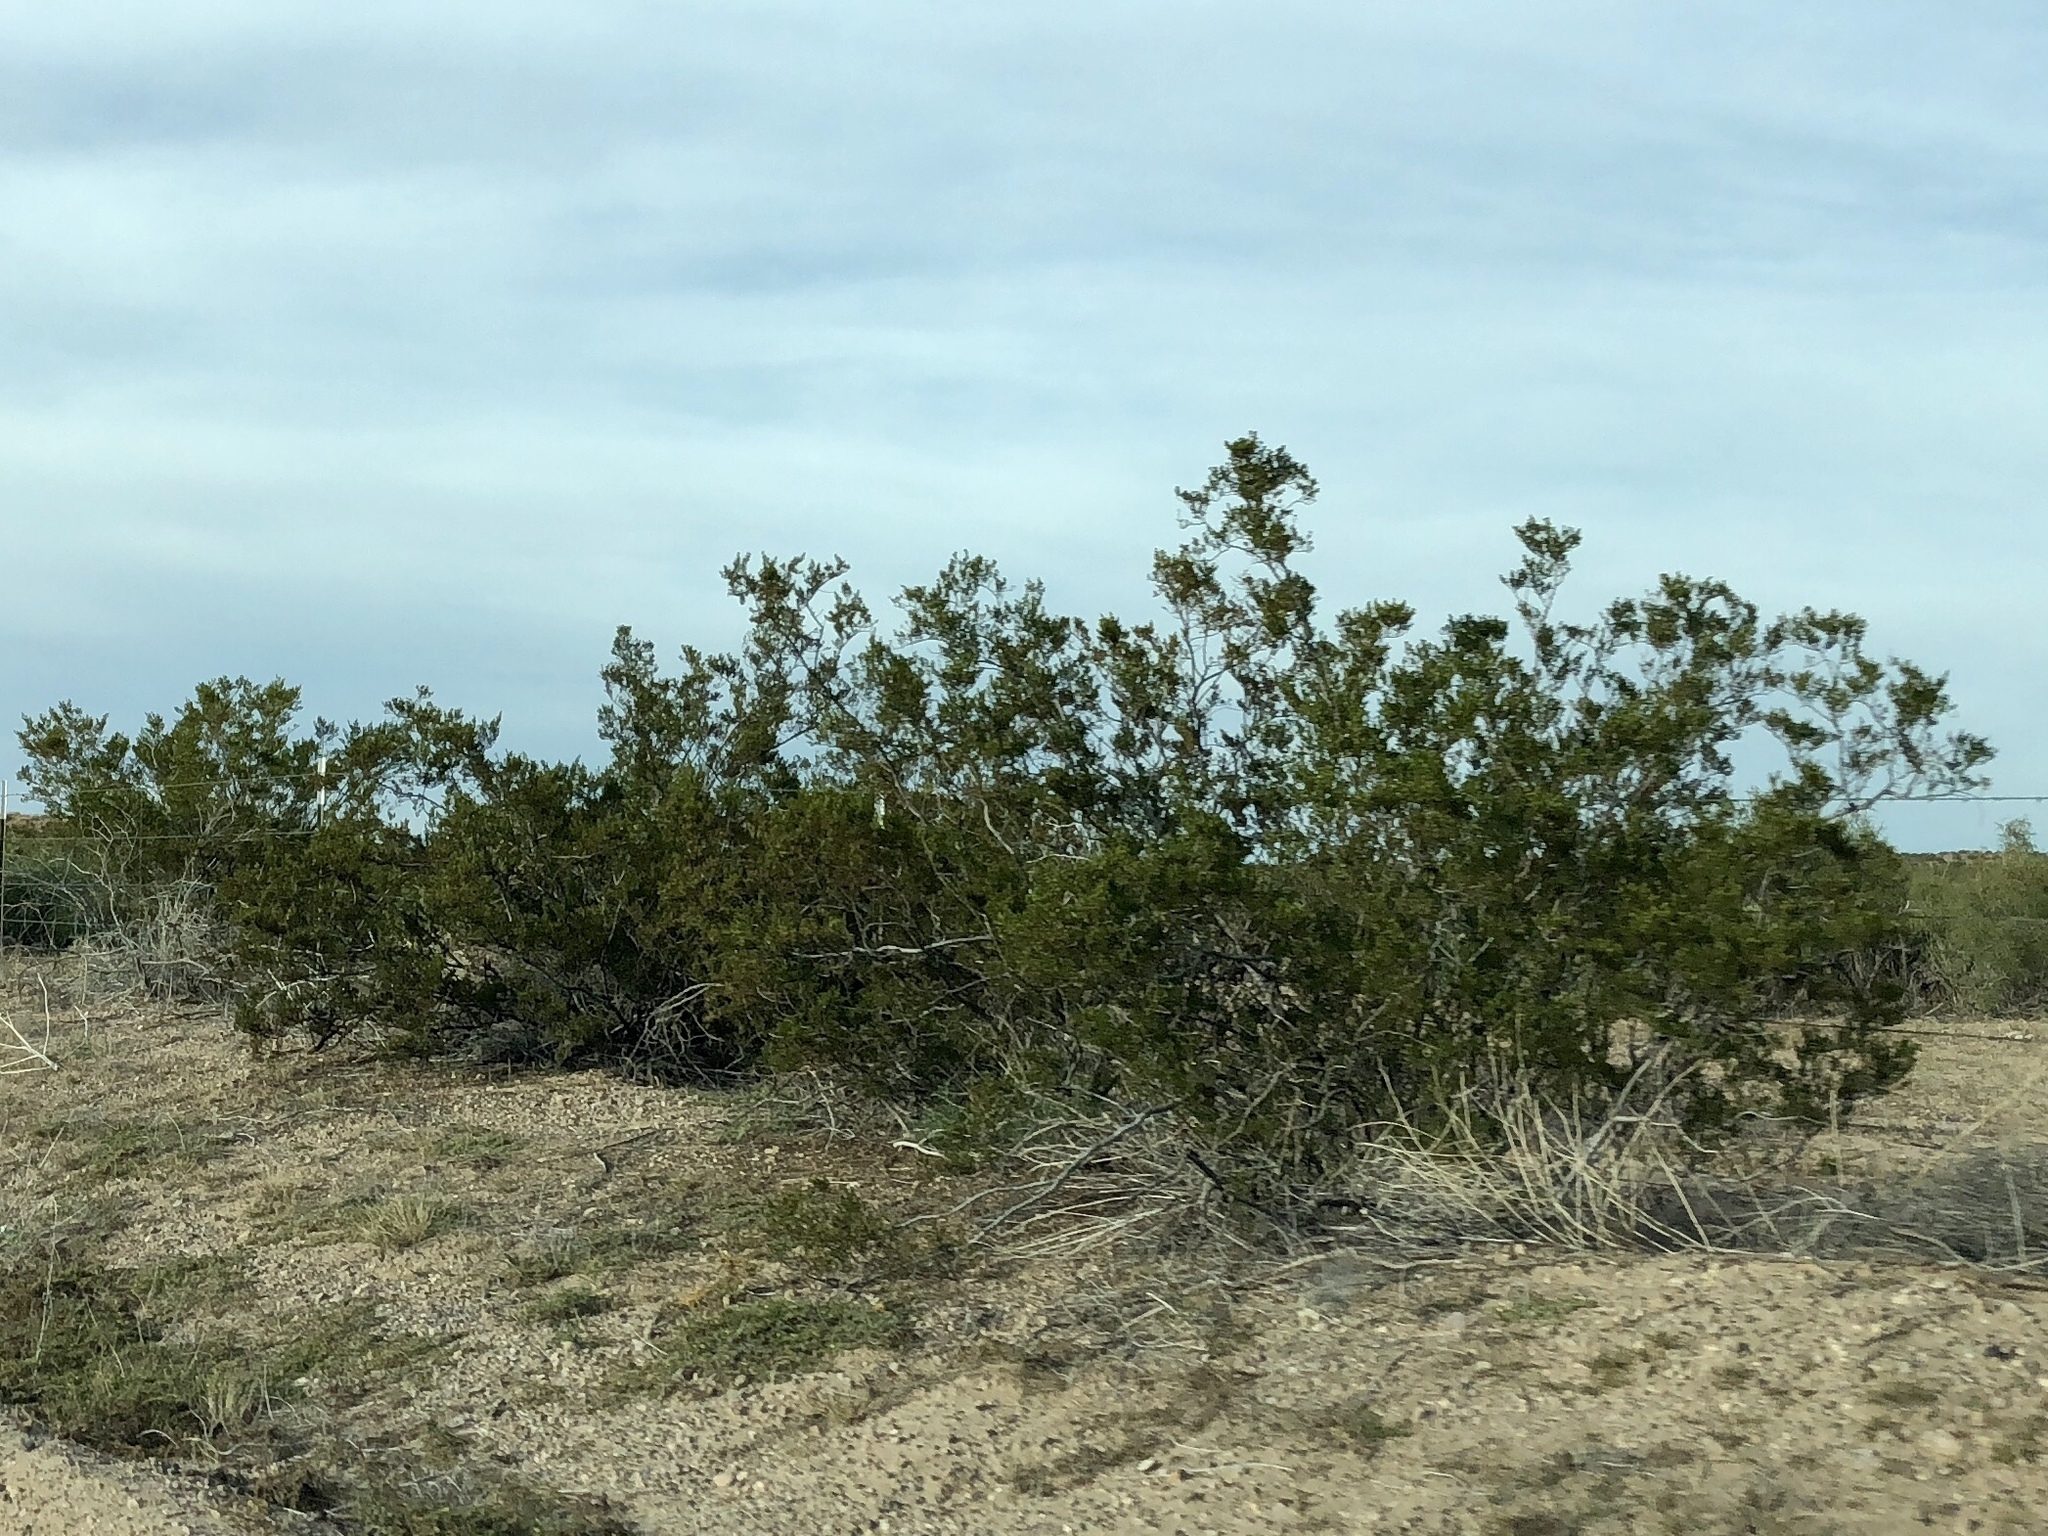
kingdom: Plantae
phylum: Tracheophyta
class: Magnoliopsida
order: Zygophyllales
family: Zygophyllaceae
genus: Larrea
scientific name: Larrea tridentata
